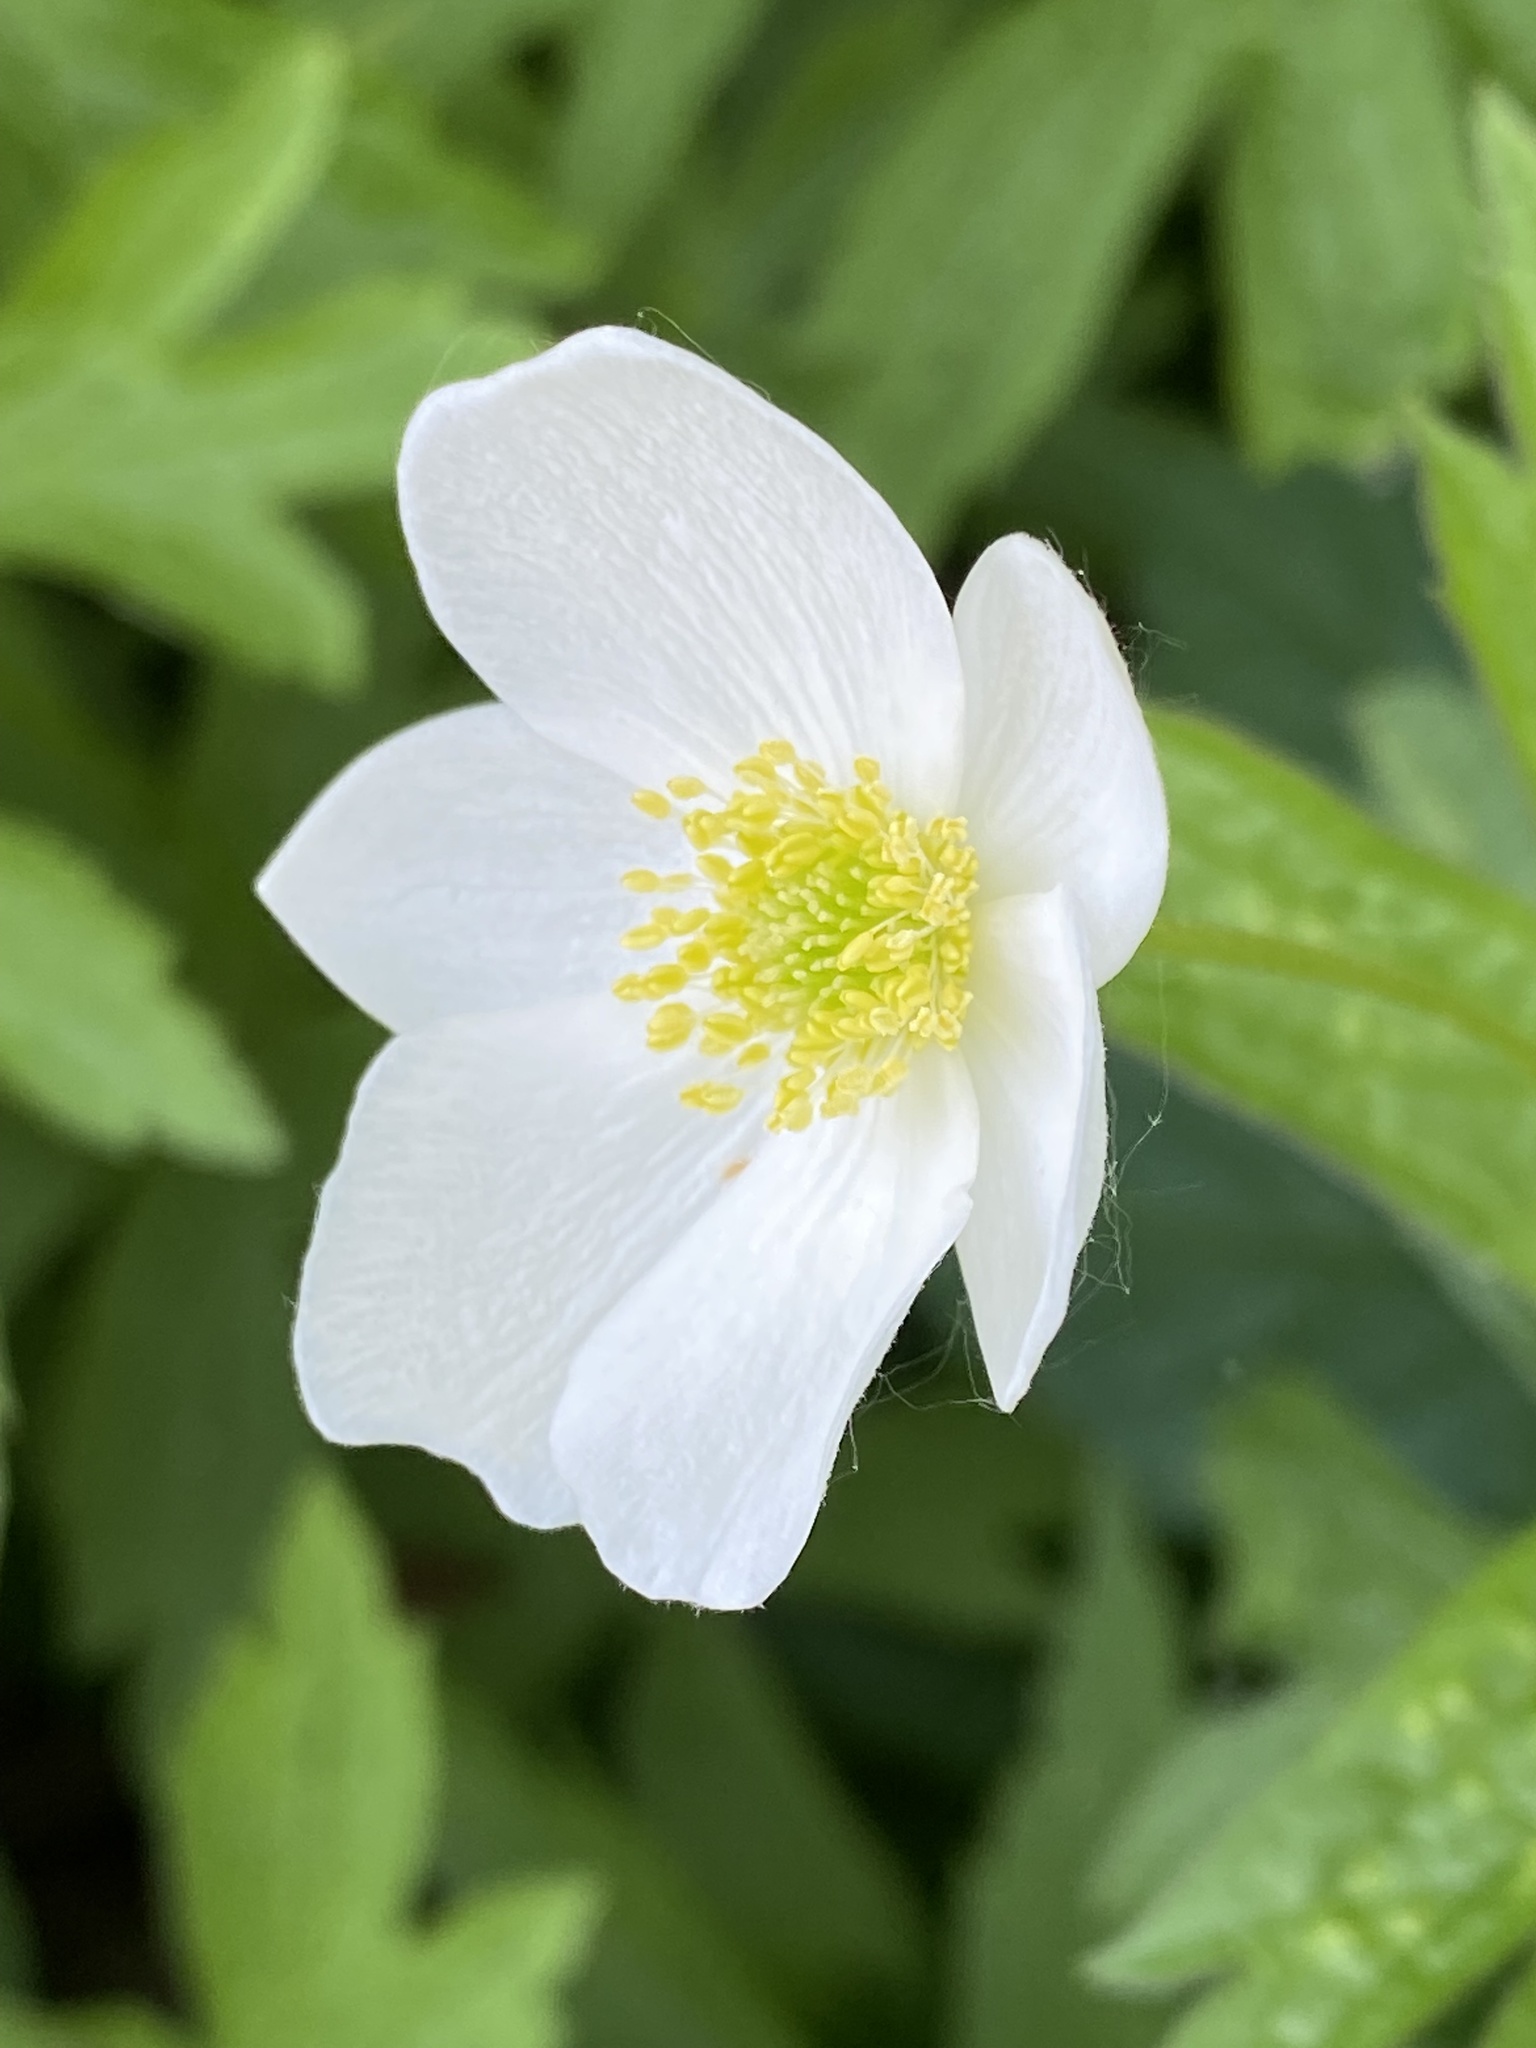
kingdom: Plantae
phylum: Tracheophyta
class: Magnoliopsida
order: Ranunculales
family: Ranunculaceae
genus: Anemonastrum
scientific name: Anemonastrum canadense
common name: Canada anemone
